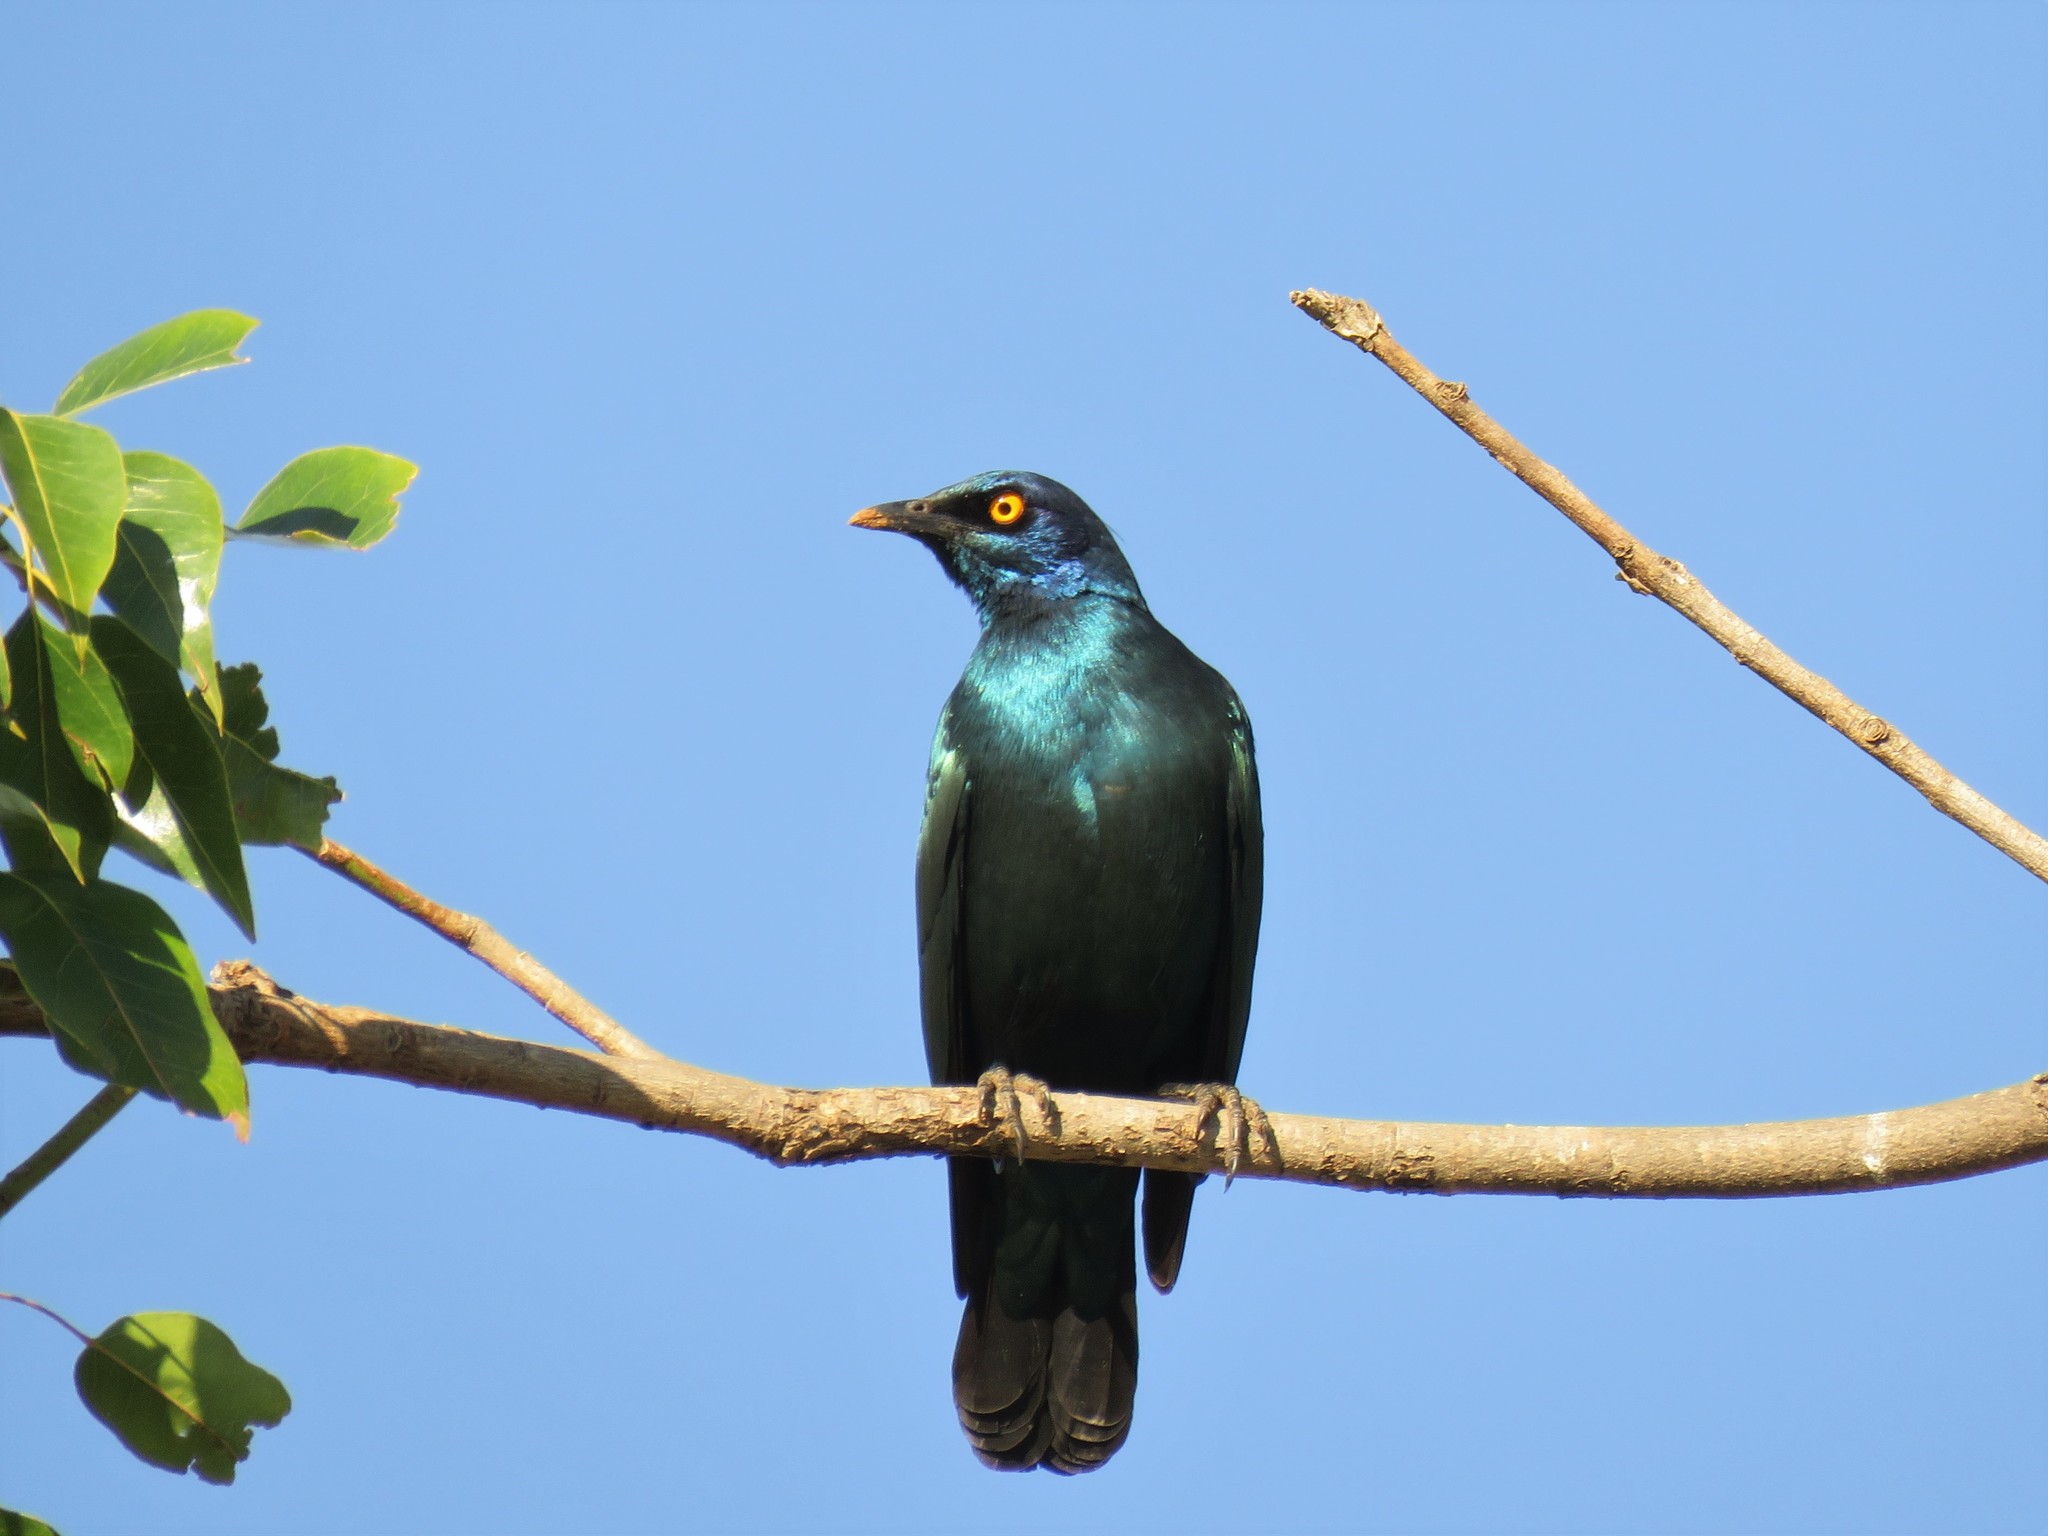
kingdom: Animalia
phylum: Chordata
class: Aves
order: Passeriformes
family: Sturnidae
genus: Lamprotornis
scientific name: Lamprotornis nitens
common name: Cape starling
